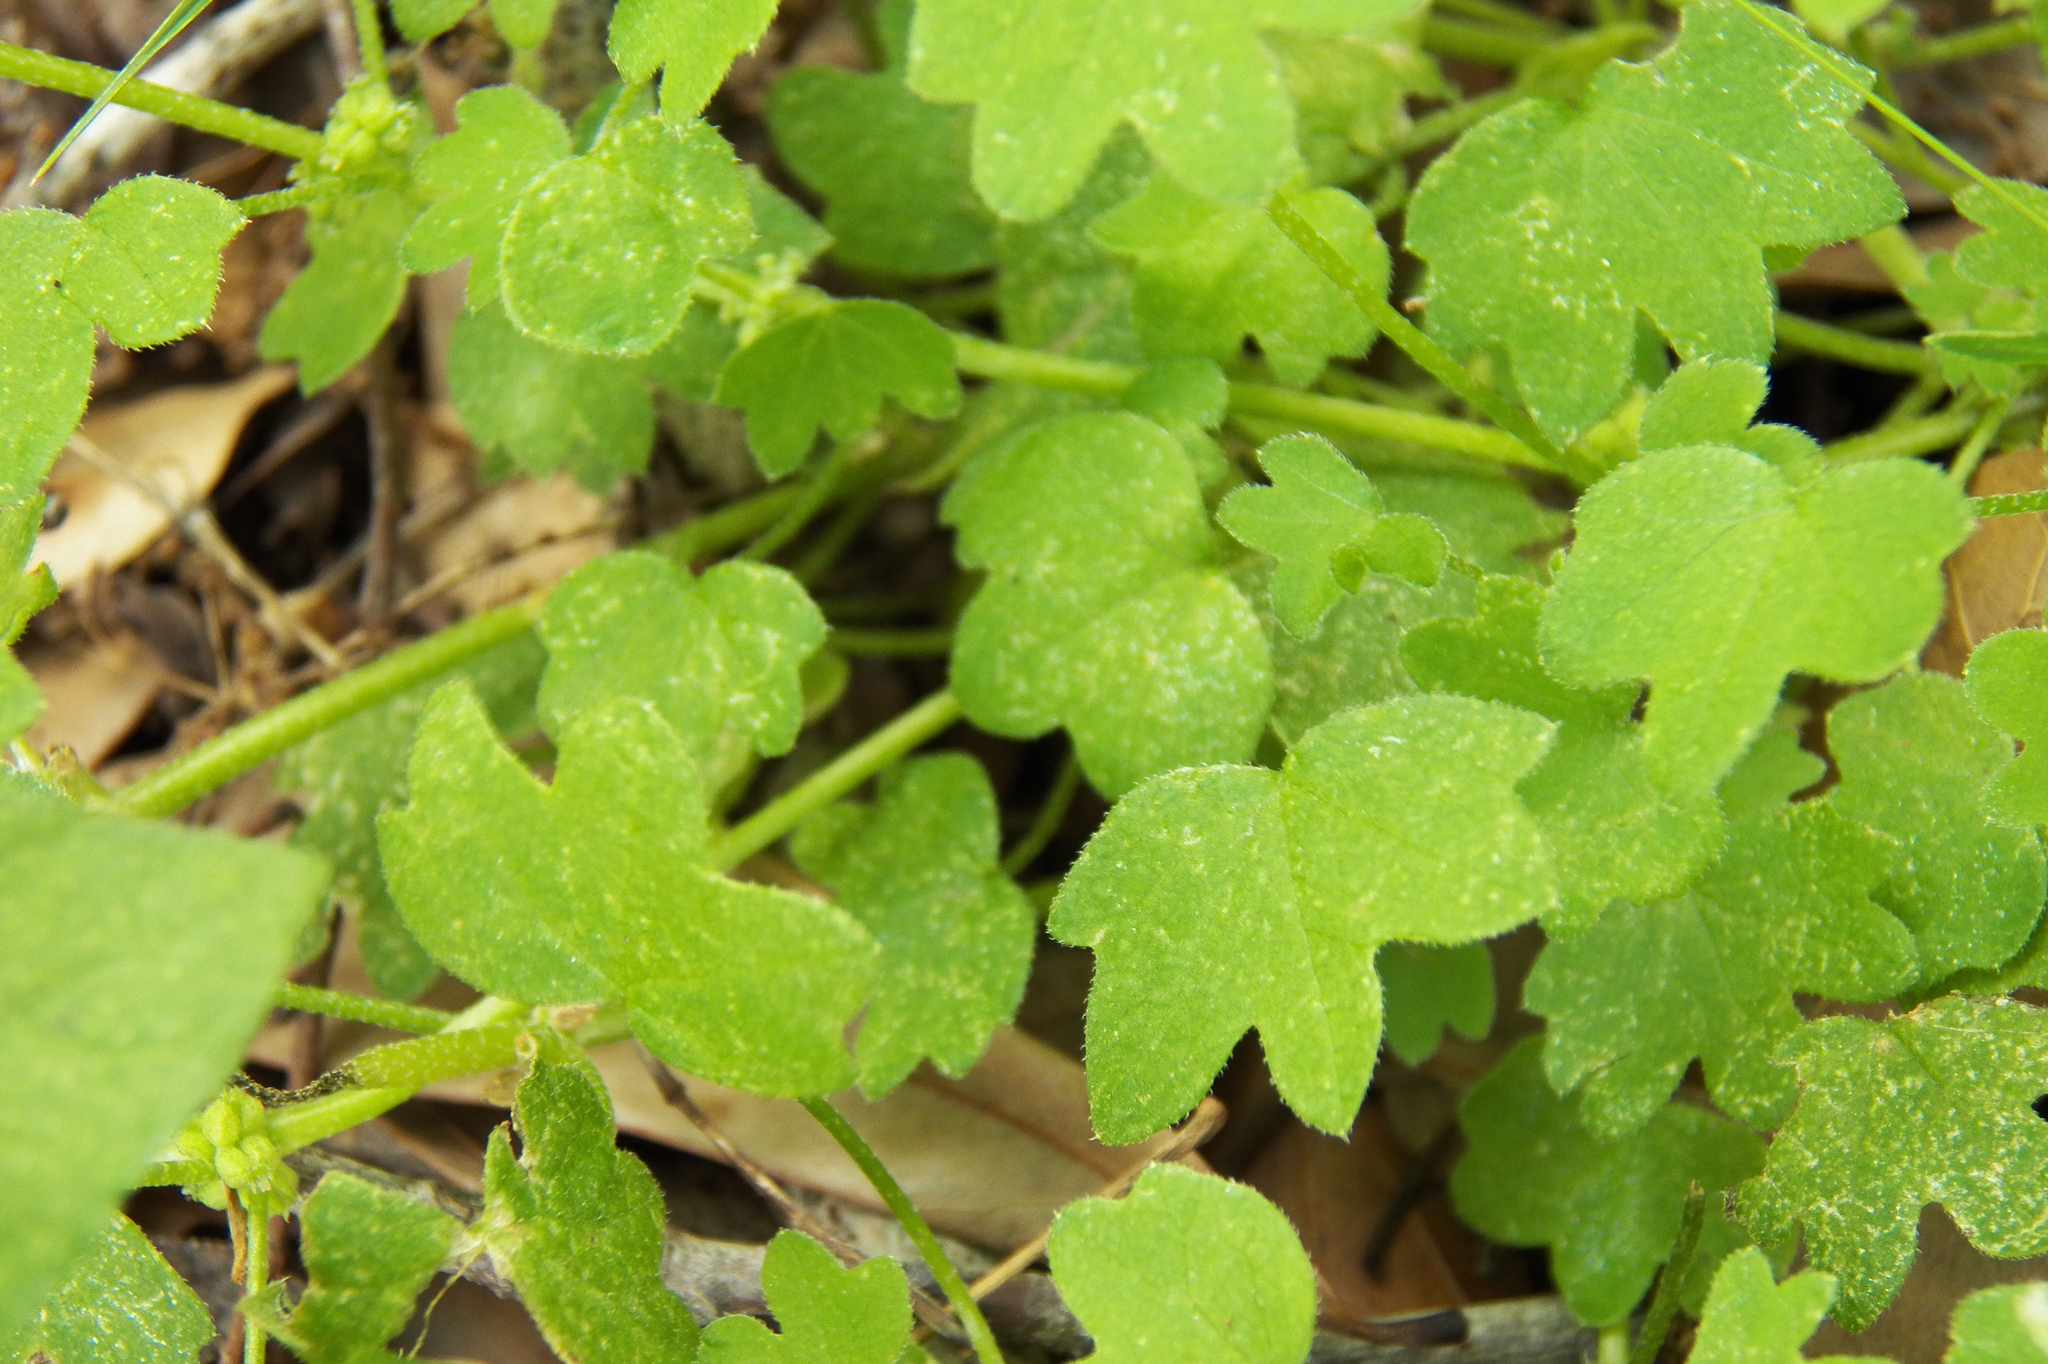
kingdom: Plantae
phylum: Tracheophyta
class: Magnoliopsida
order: Apiales
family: Apiaceae
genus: Bowlesia
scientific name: Bowlesia incana
